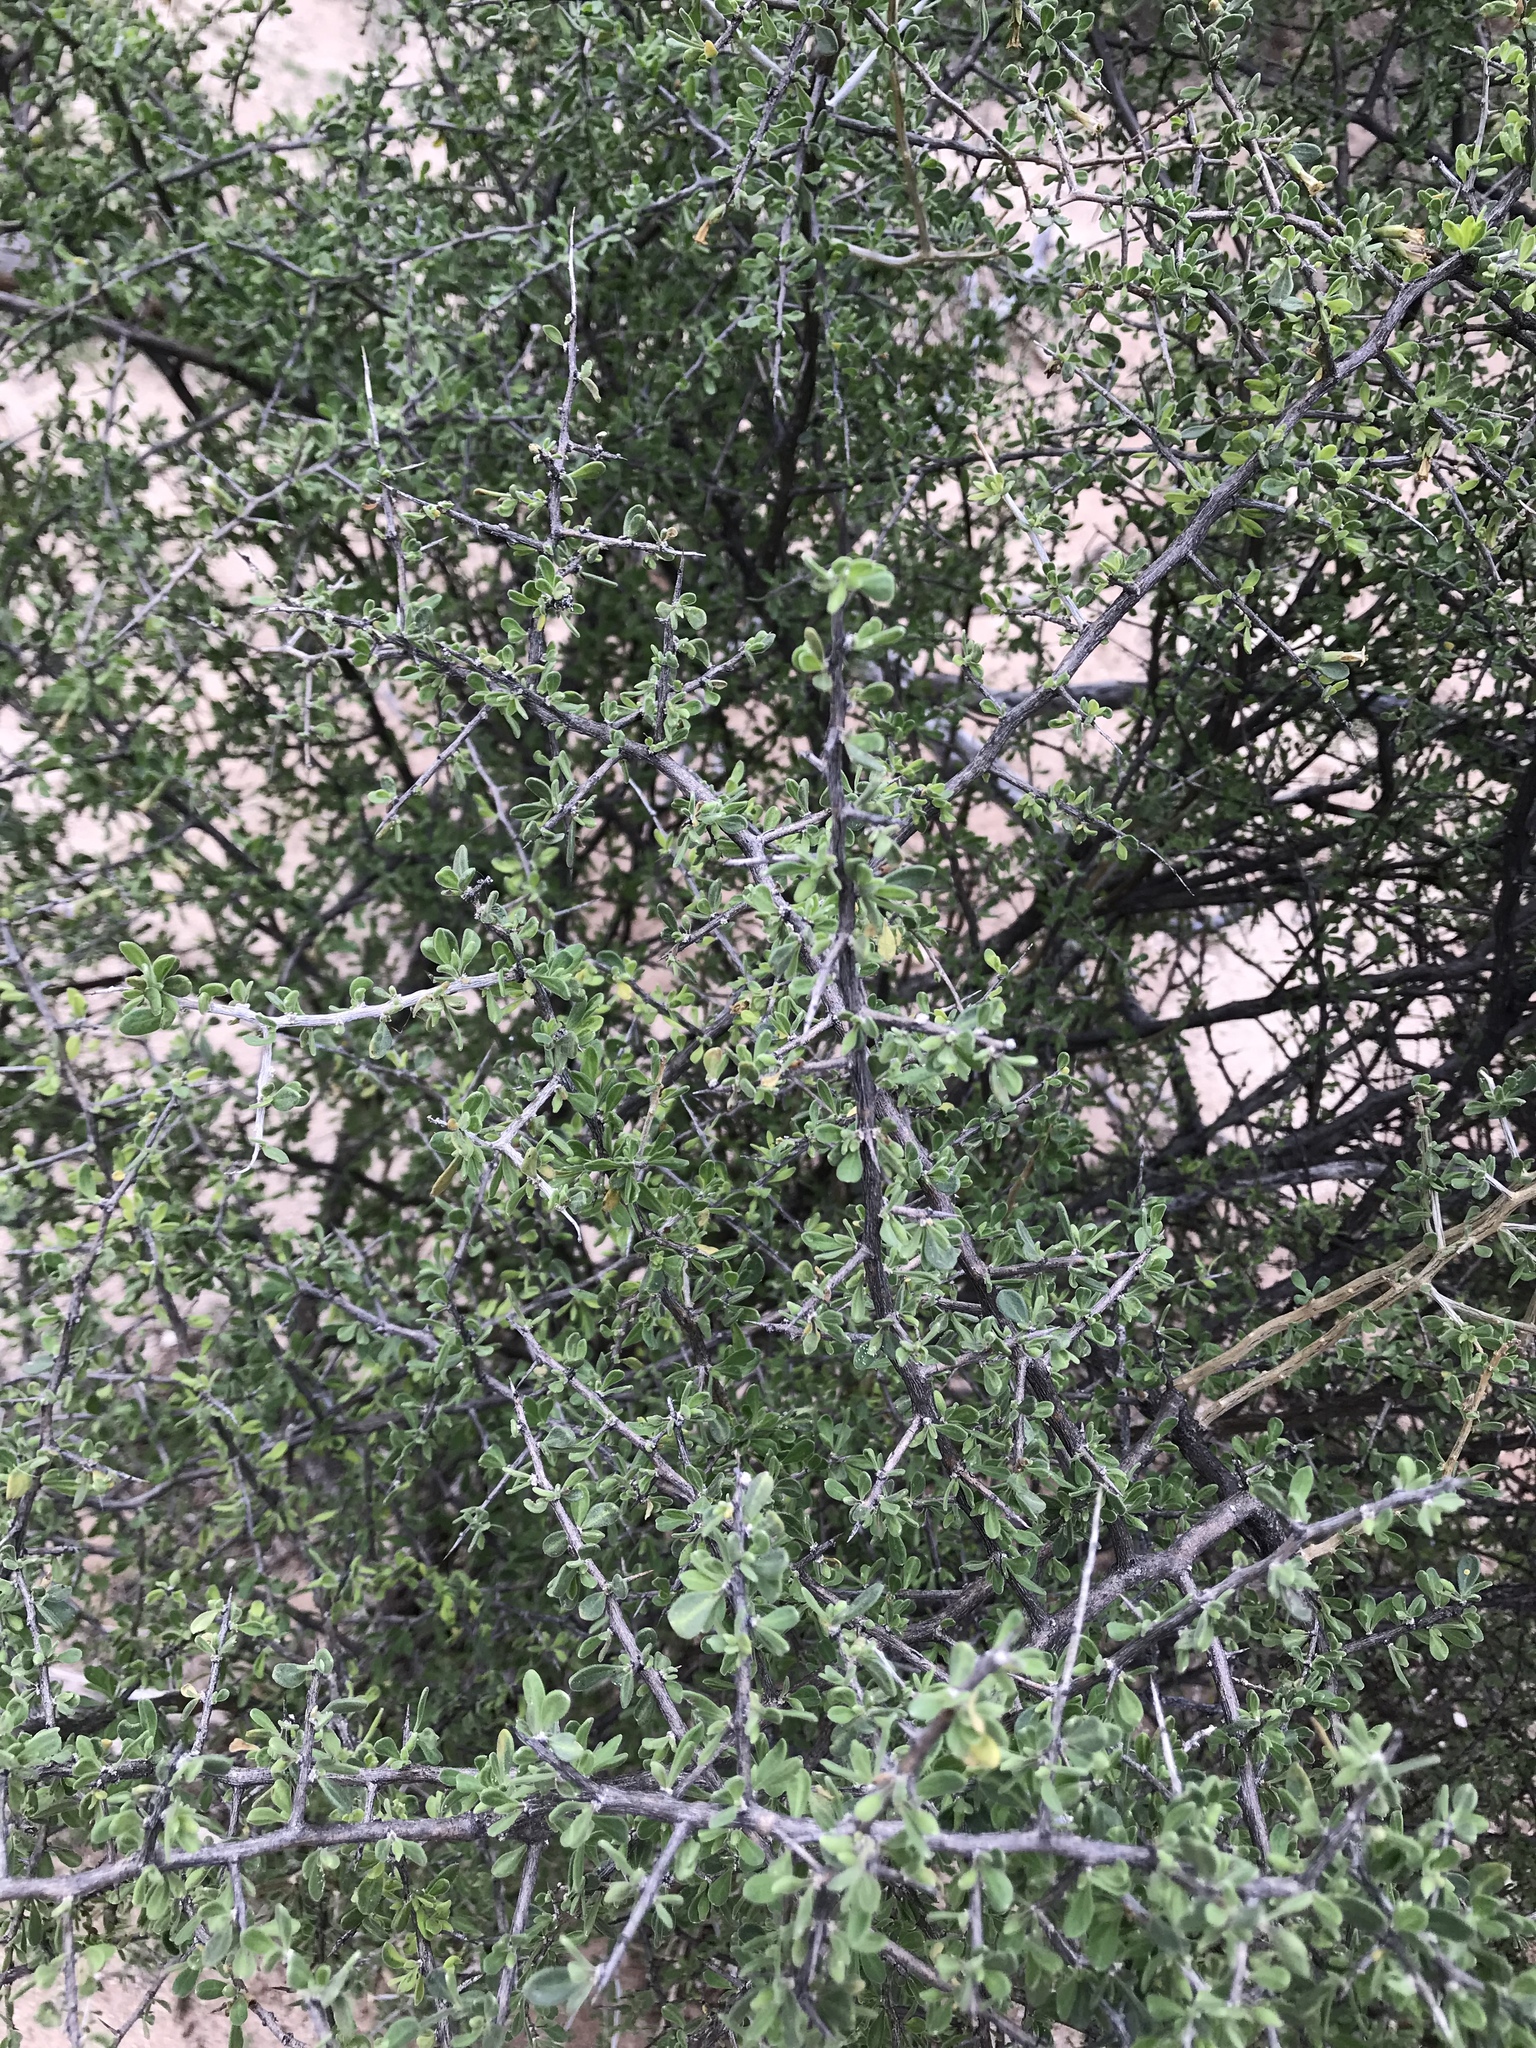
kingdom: Plantae
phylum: Tracheophyta
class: Magnoliopsida
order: Solanales
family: Solanaceae
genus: Lycium
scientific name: Lycium berlandieri
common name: Berlandier wolfberry
